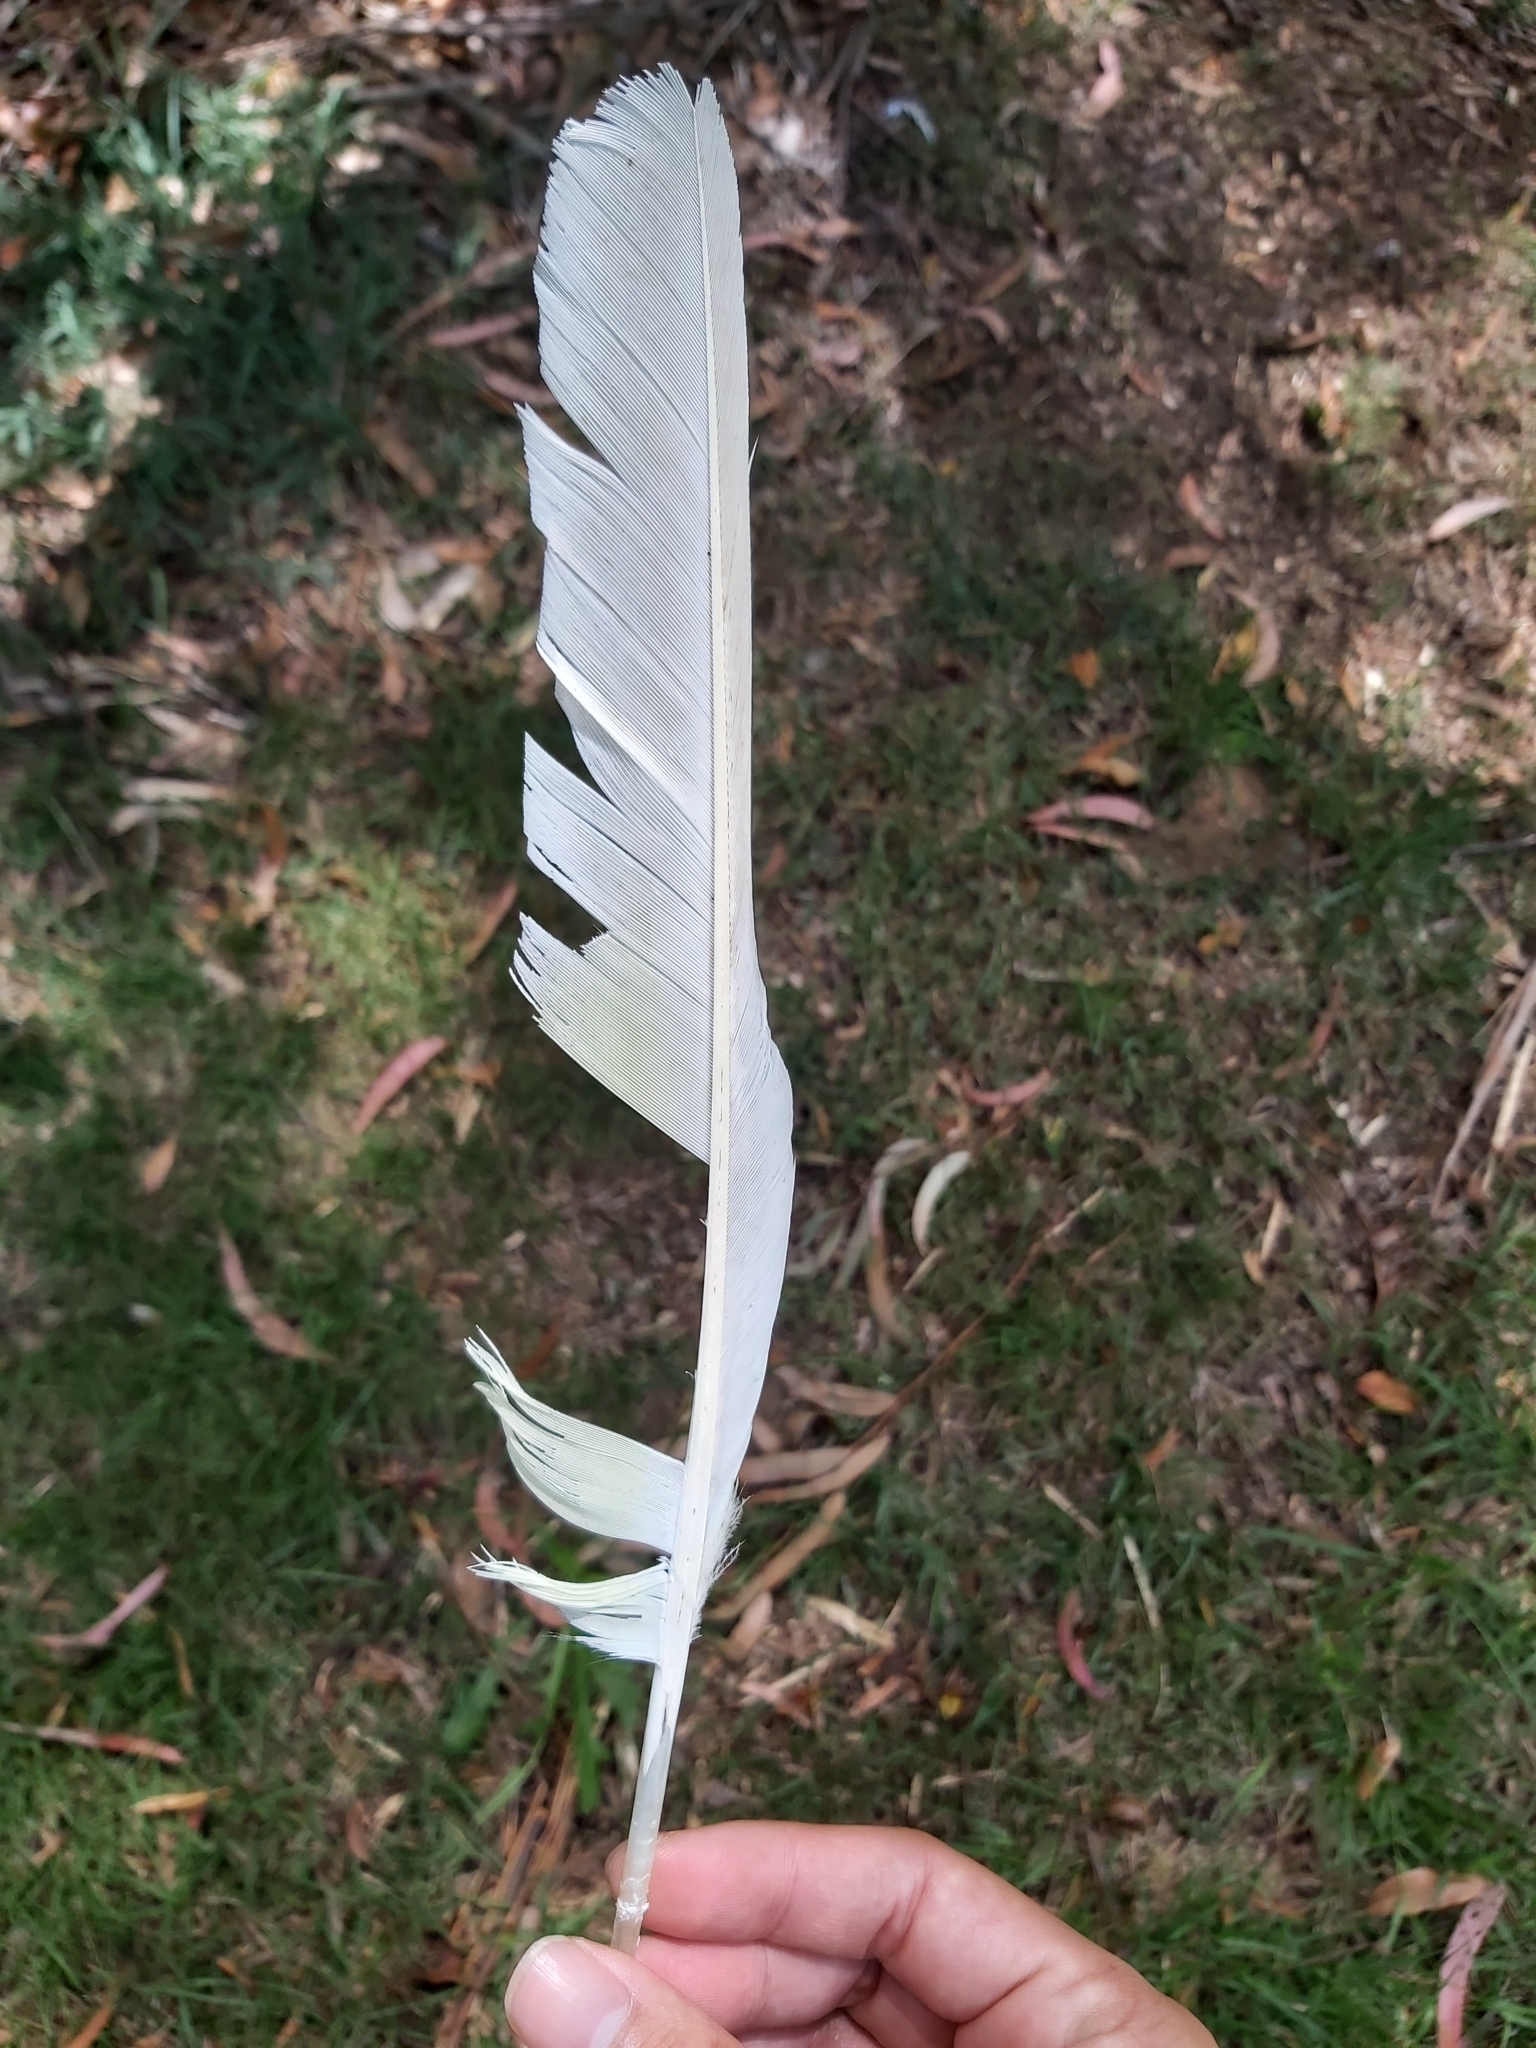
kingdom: Animalia
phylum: Chordata
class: Aves
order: Psittaciformes
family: Psittacidae
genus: Cacatua
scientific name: Cacatua galerita
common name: Sulphur-crested cockatoo
